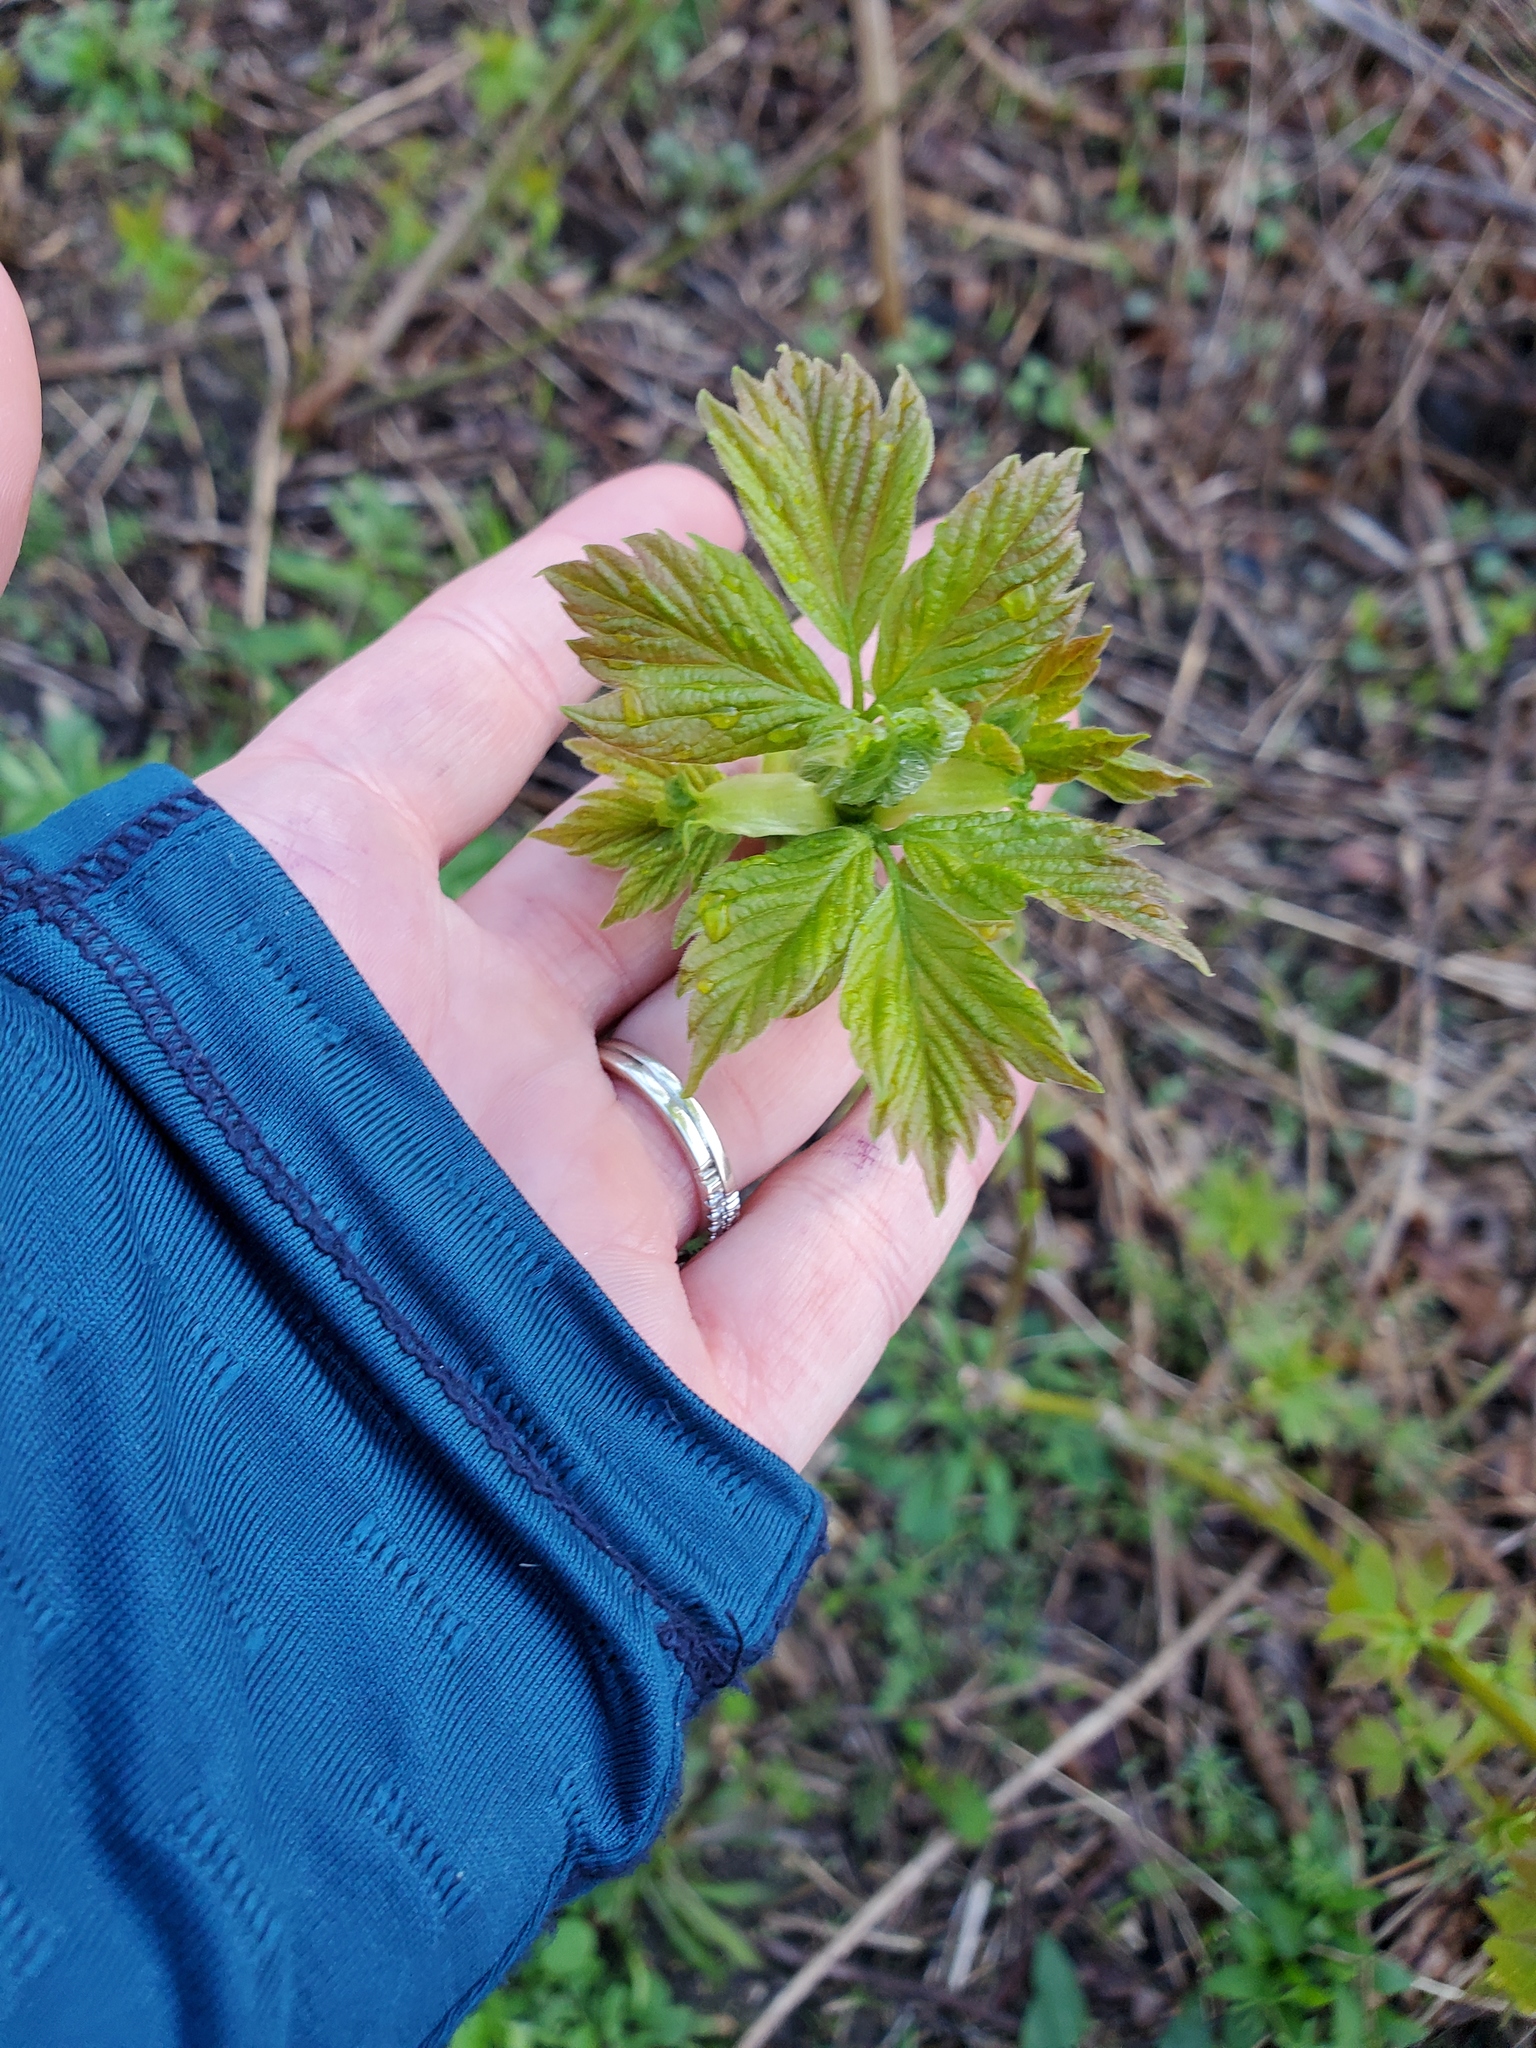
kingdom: Plantae
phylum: Tracheophyta
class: Magnoliopsida
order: Sapindales
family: Sapindaceae
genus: Acer
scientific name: Acer negundo
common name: Ashleaf maple
